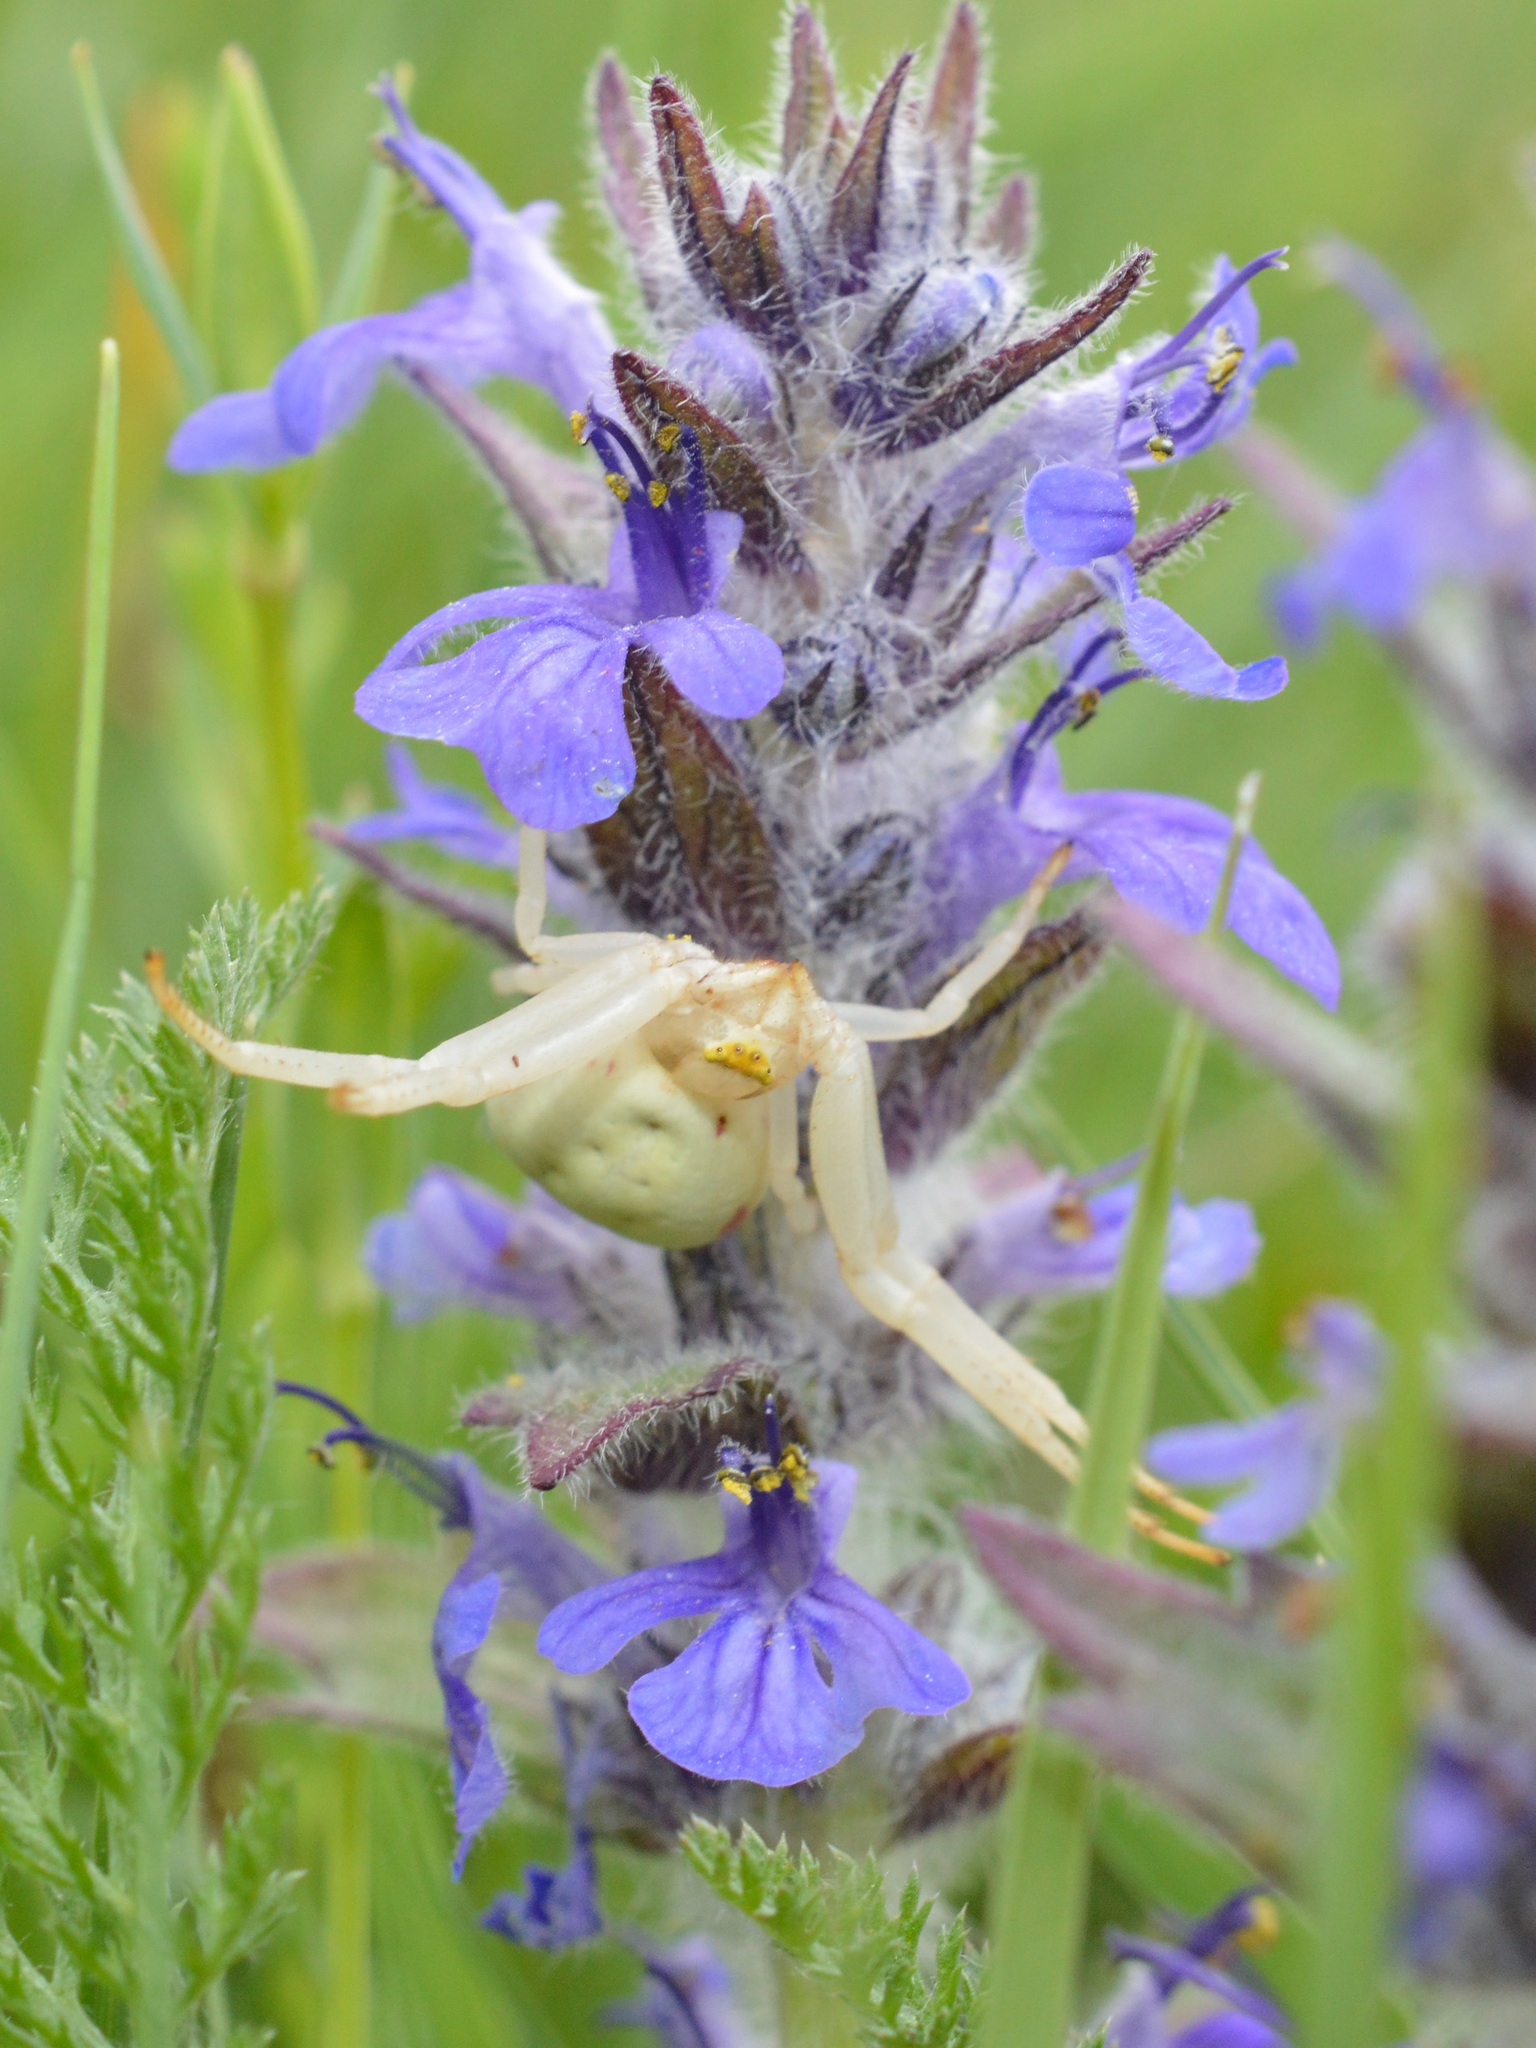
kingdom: Animalia
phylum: Arthropoda
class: Arachnida
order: Araneae
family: Thomisidae
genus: Misumena
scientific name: Misumena vatia
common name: Goldenrod crab spider
